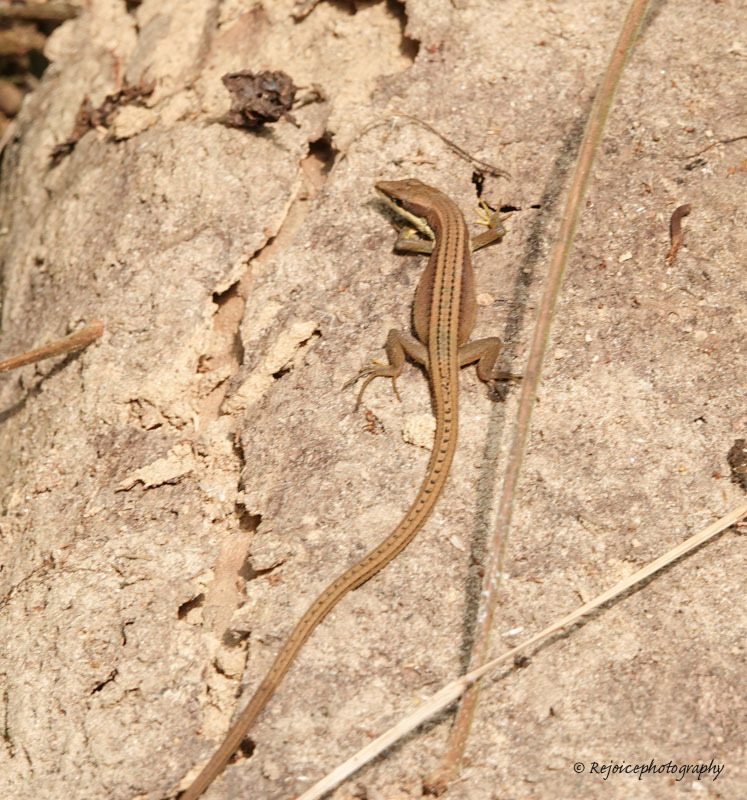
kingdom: Animalia
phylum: Chordata
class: Squamata
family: Lacertidae
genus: Takydromus
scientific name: Takydromus sexlineatus
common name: Asian grass lizard
